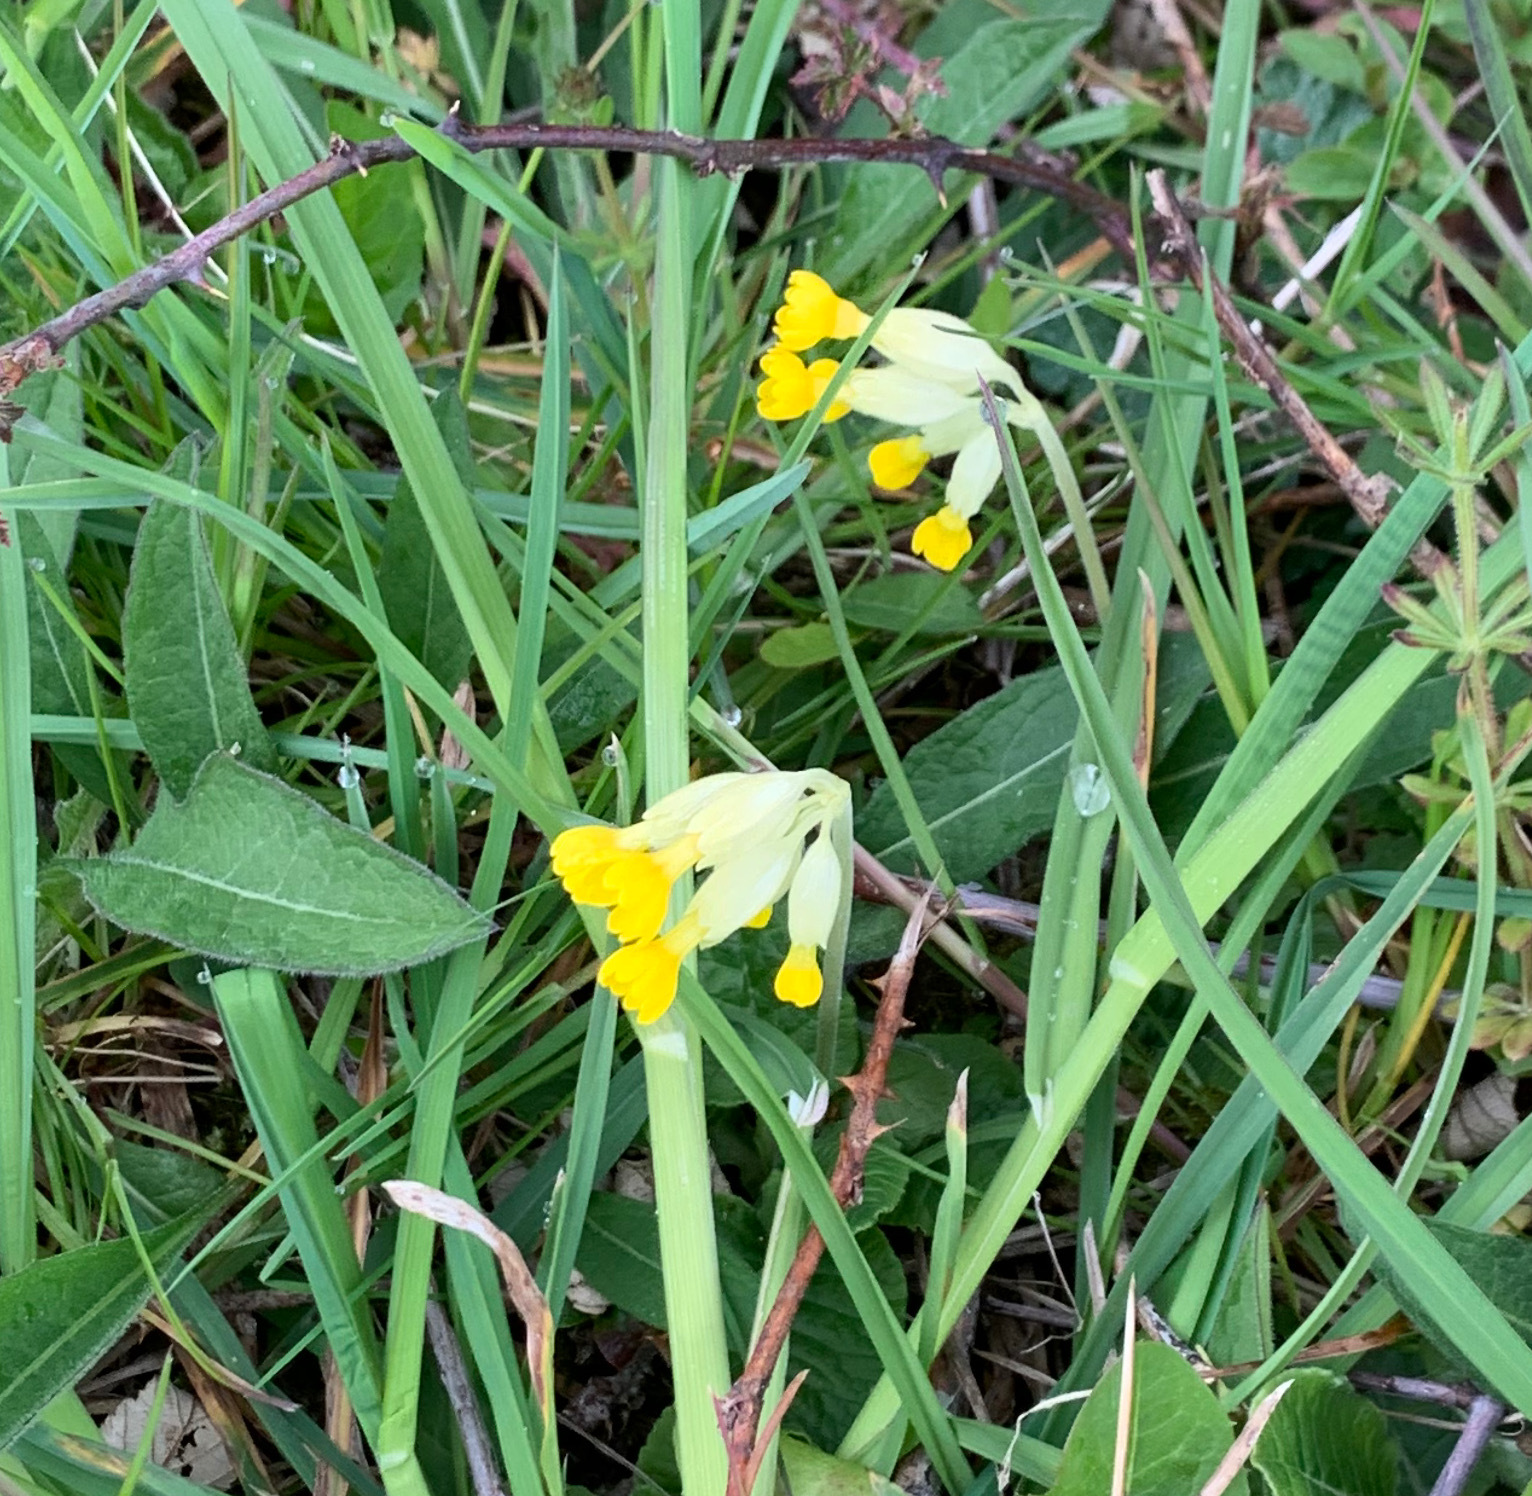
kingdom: Plantae
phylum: Tracheophyta
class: Magnoliopsida
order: Ericales
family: Primulaceae
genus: Primula
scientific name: Primula veris
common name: Cowslip
